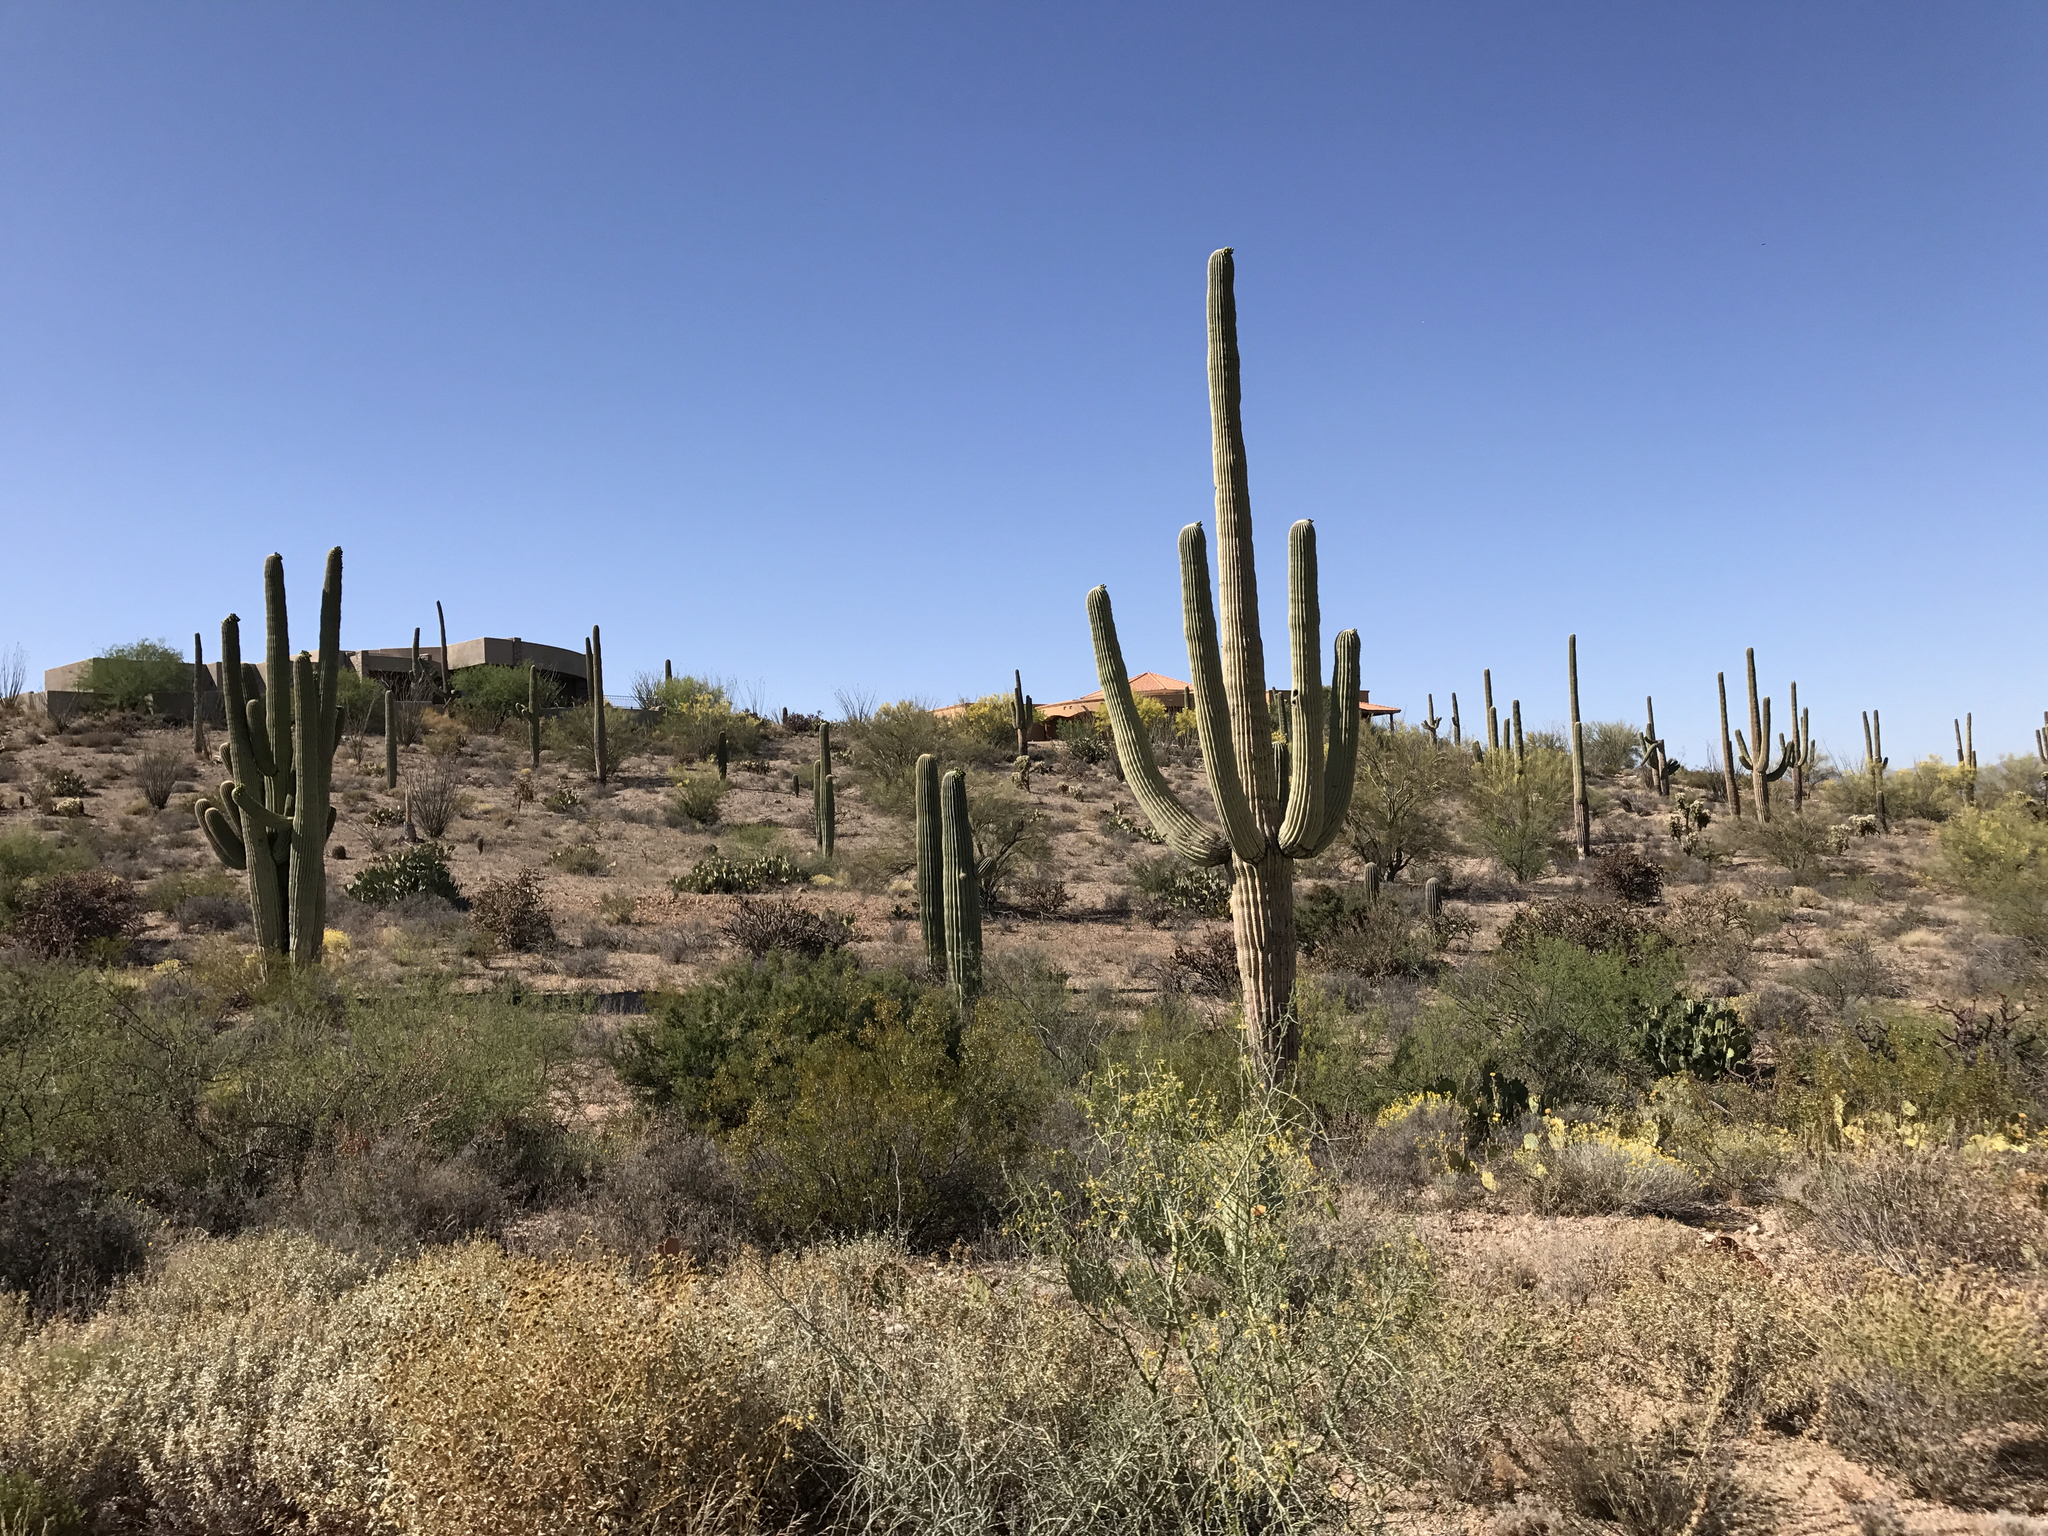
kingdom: Plantae
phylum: Tracheophyta
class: Magnoliopsida
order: Caryophyllales
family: Cactaceae
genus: Carnegiea
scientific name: Carnegiea gigantea
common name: Saguaro
